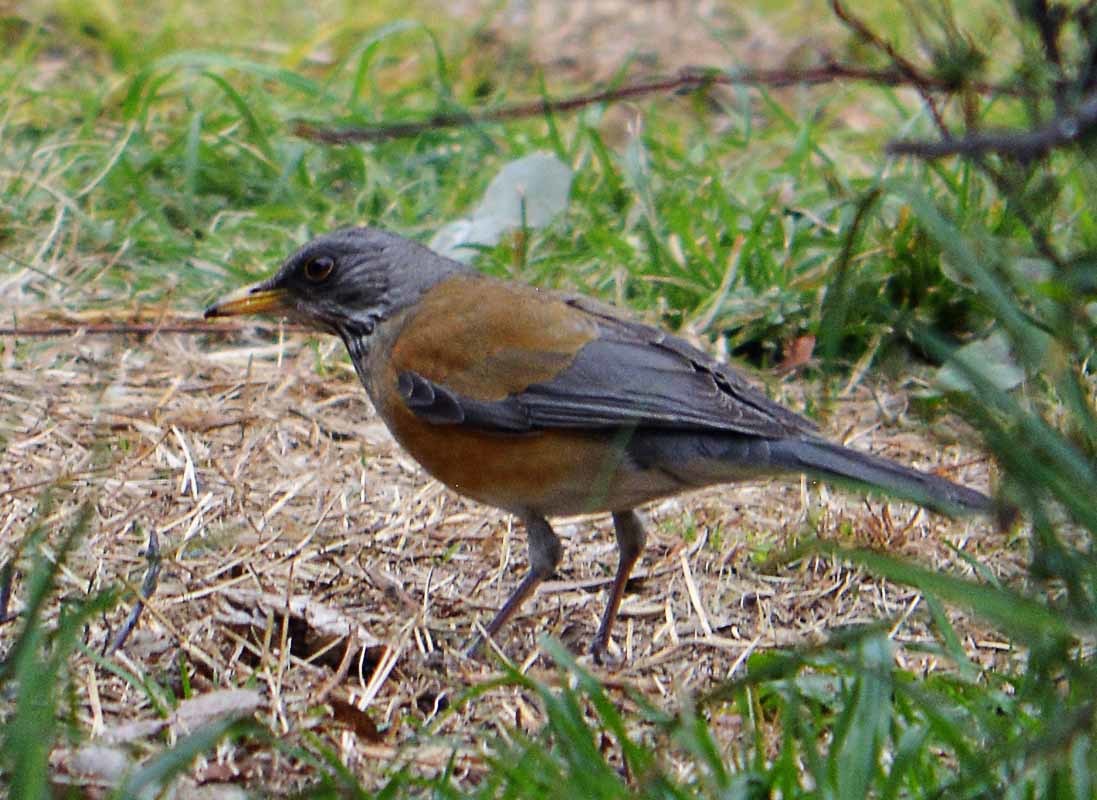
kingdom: Animalia
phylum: Chordata
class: Aves
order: Passeriformes
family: Turdidae
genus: Turdus
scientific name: Turdus rufopalliatus
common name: Rufous-backed robin
